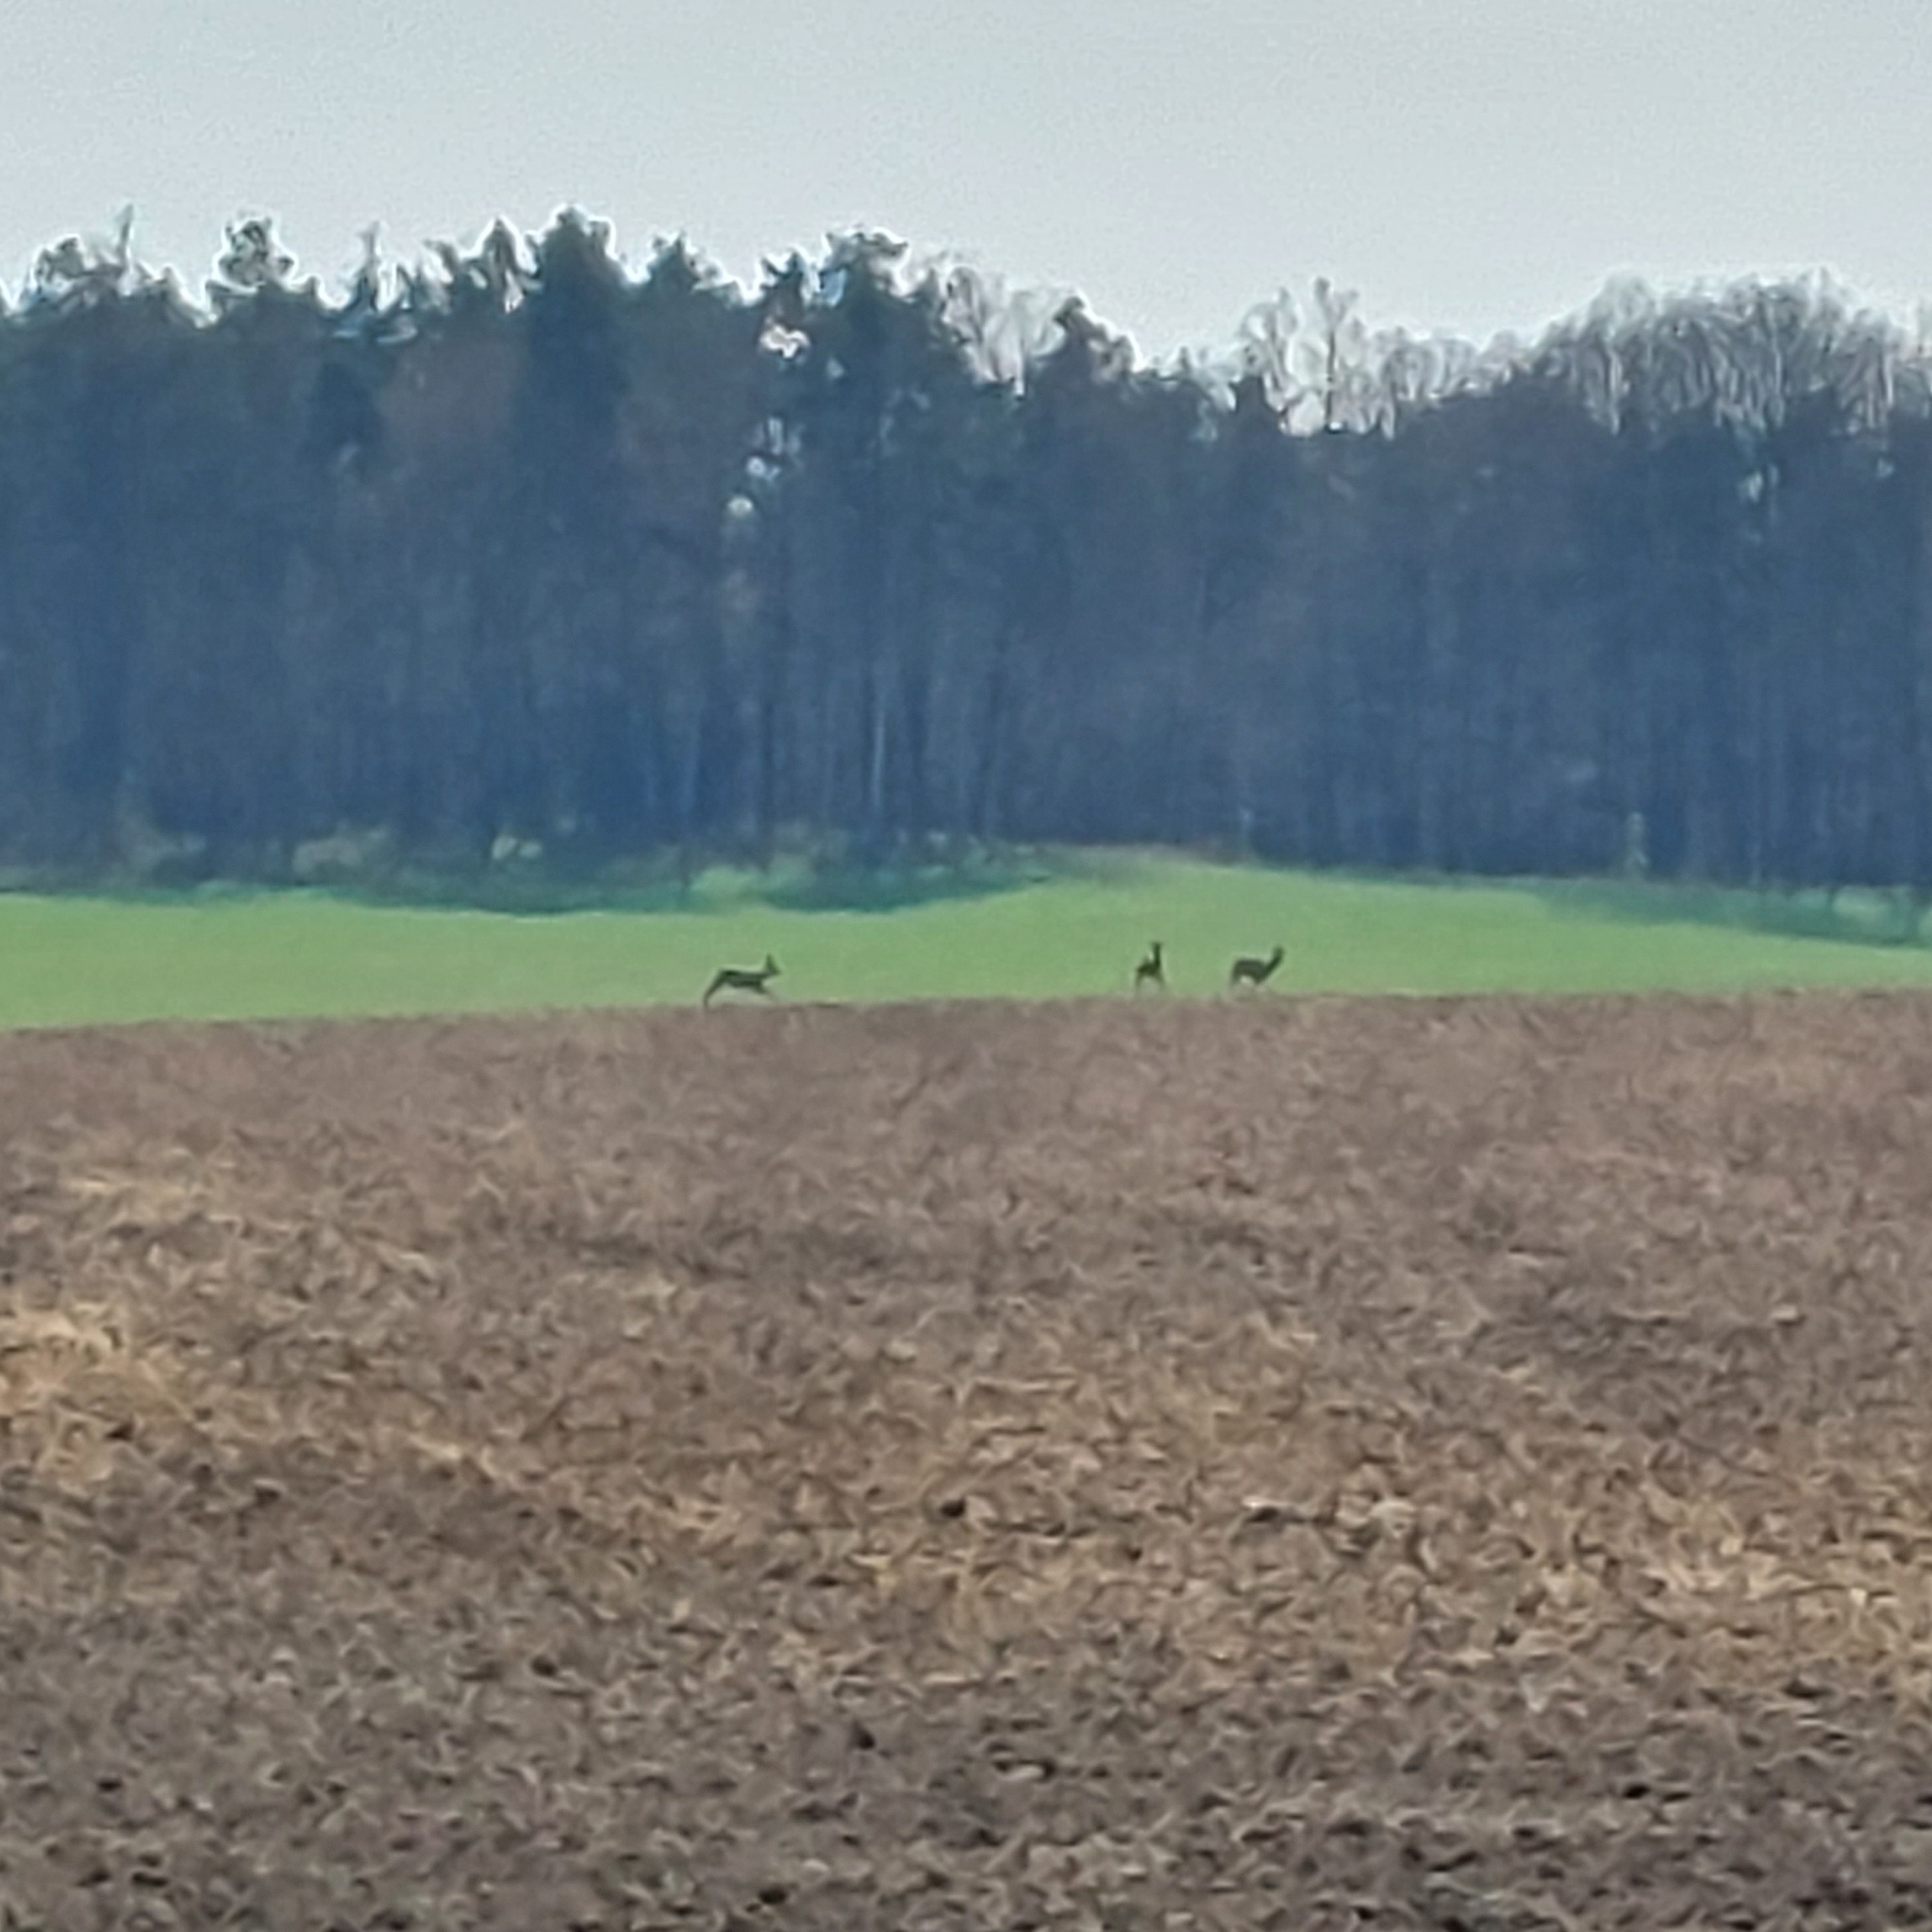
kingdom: Animalia
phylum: Chordata
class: Mammalia
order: Artiodactyla
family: Cervidae
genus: Capreolus
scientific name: Capreolus capreolus
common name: Western roe deer
